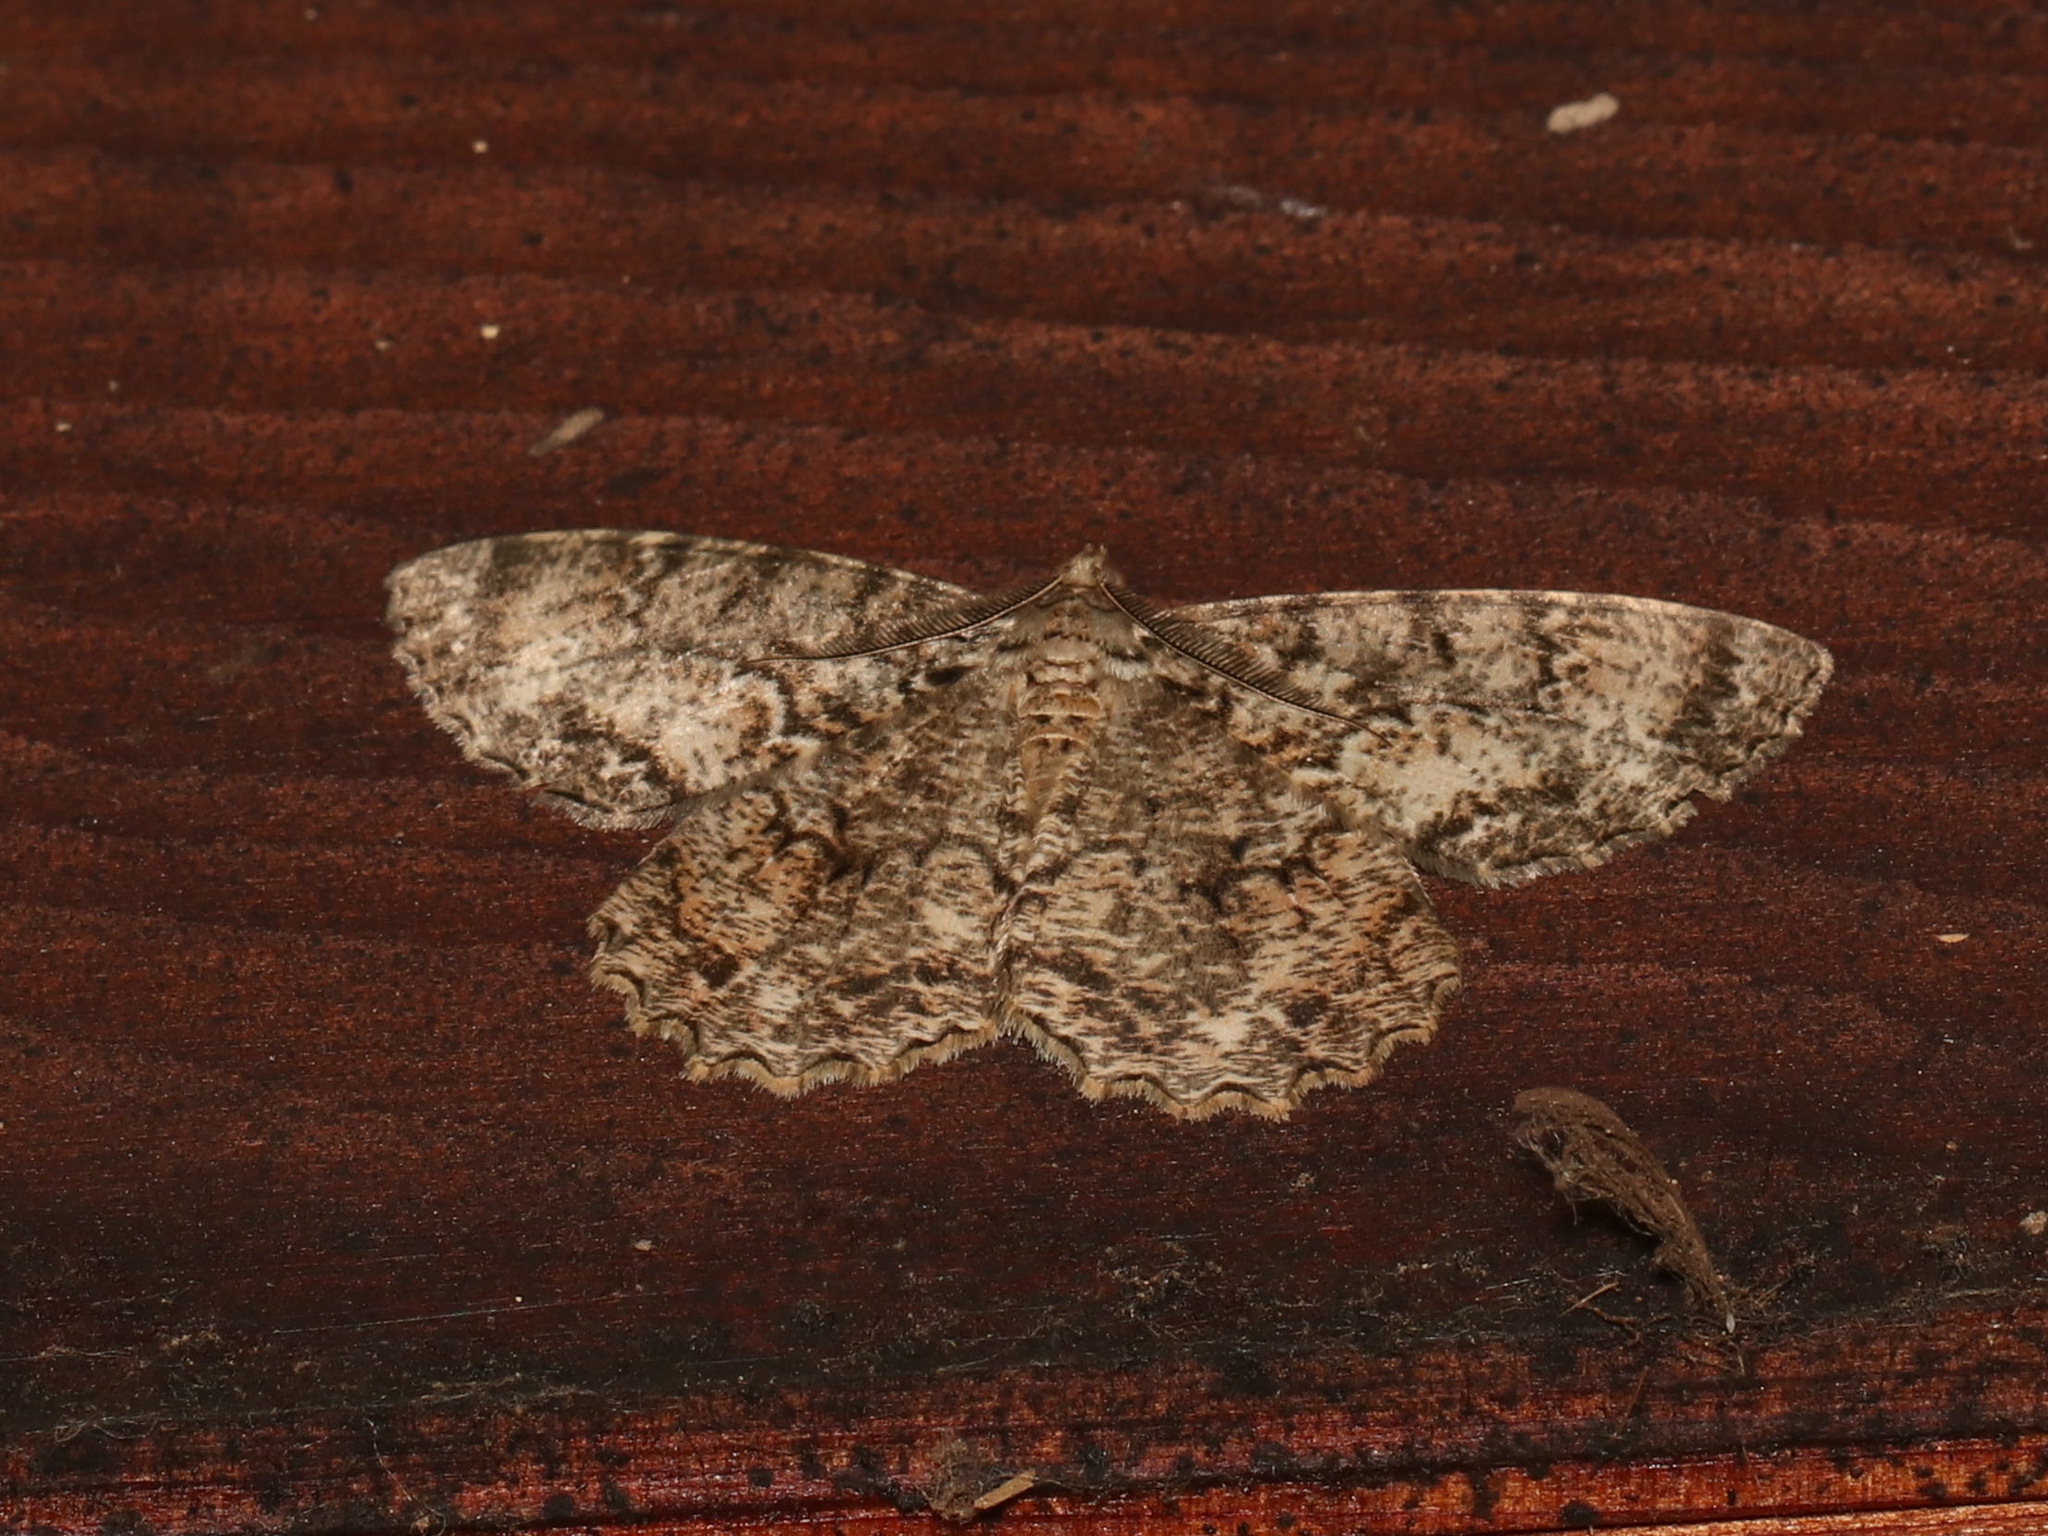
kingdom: Animalia
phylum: Arthropoda
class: Insecta
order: Lepidoptera
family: Geometridae
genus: Epimecis
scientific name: Epimecis hortaria
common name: Tulip-tree beauty
